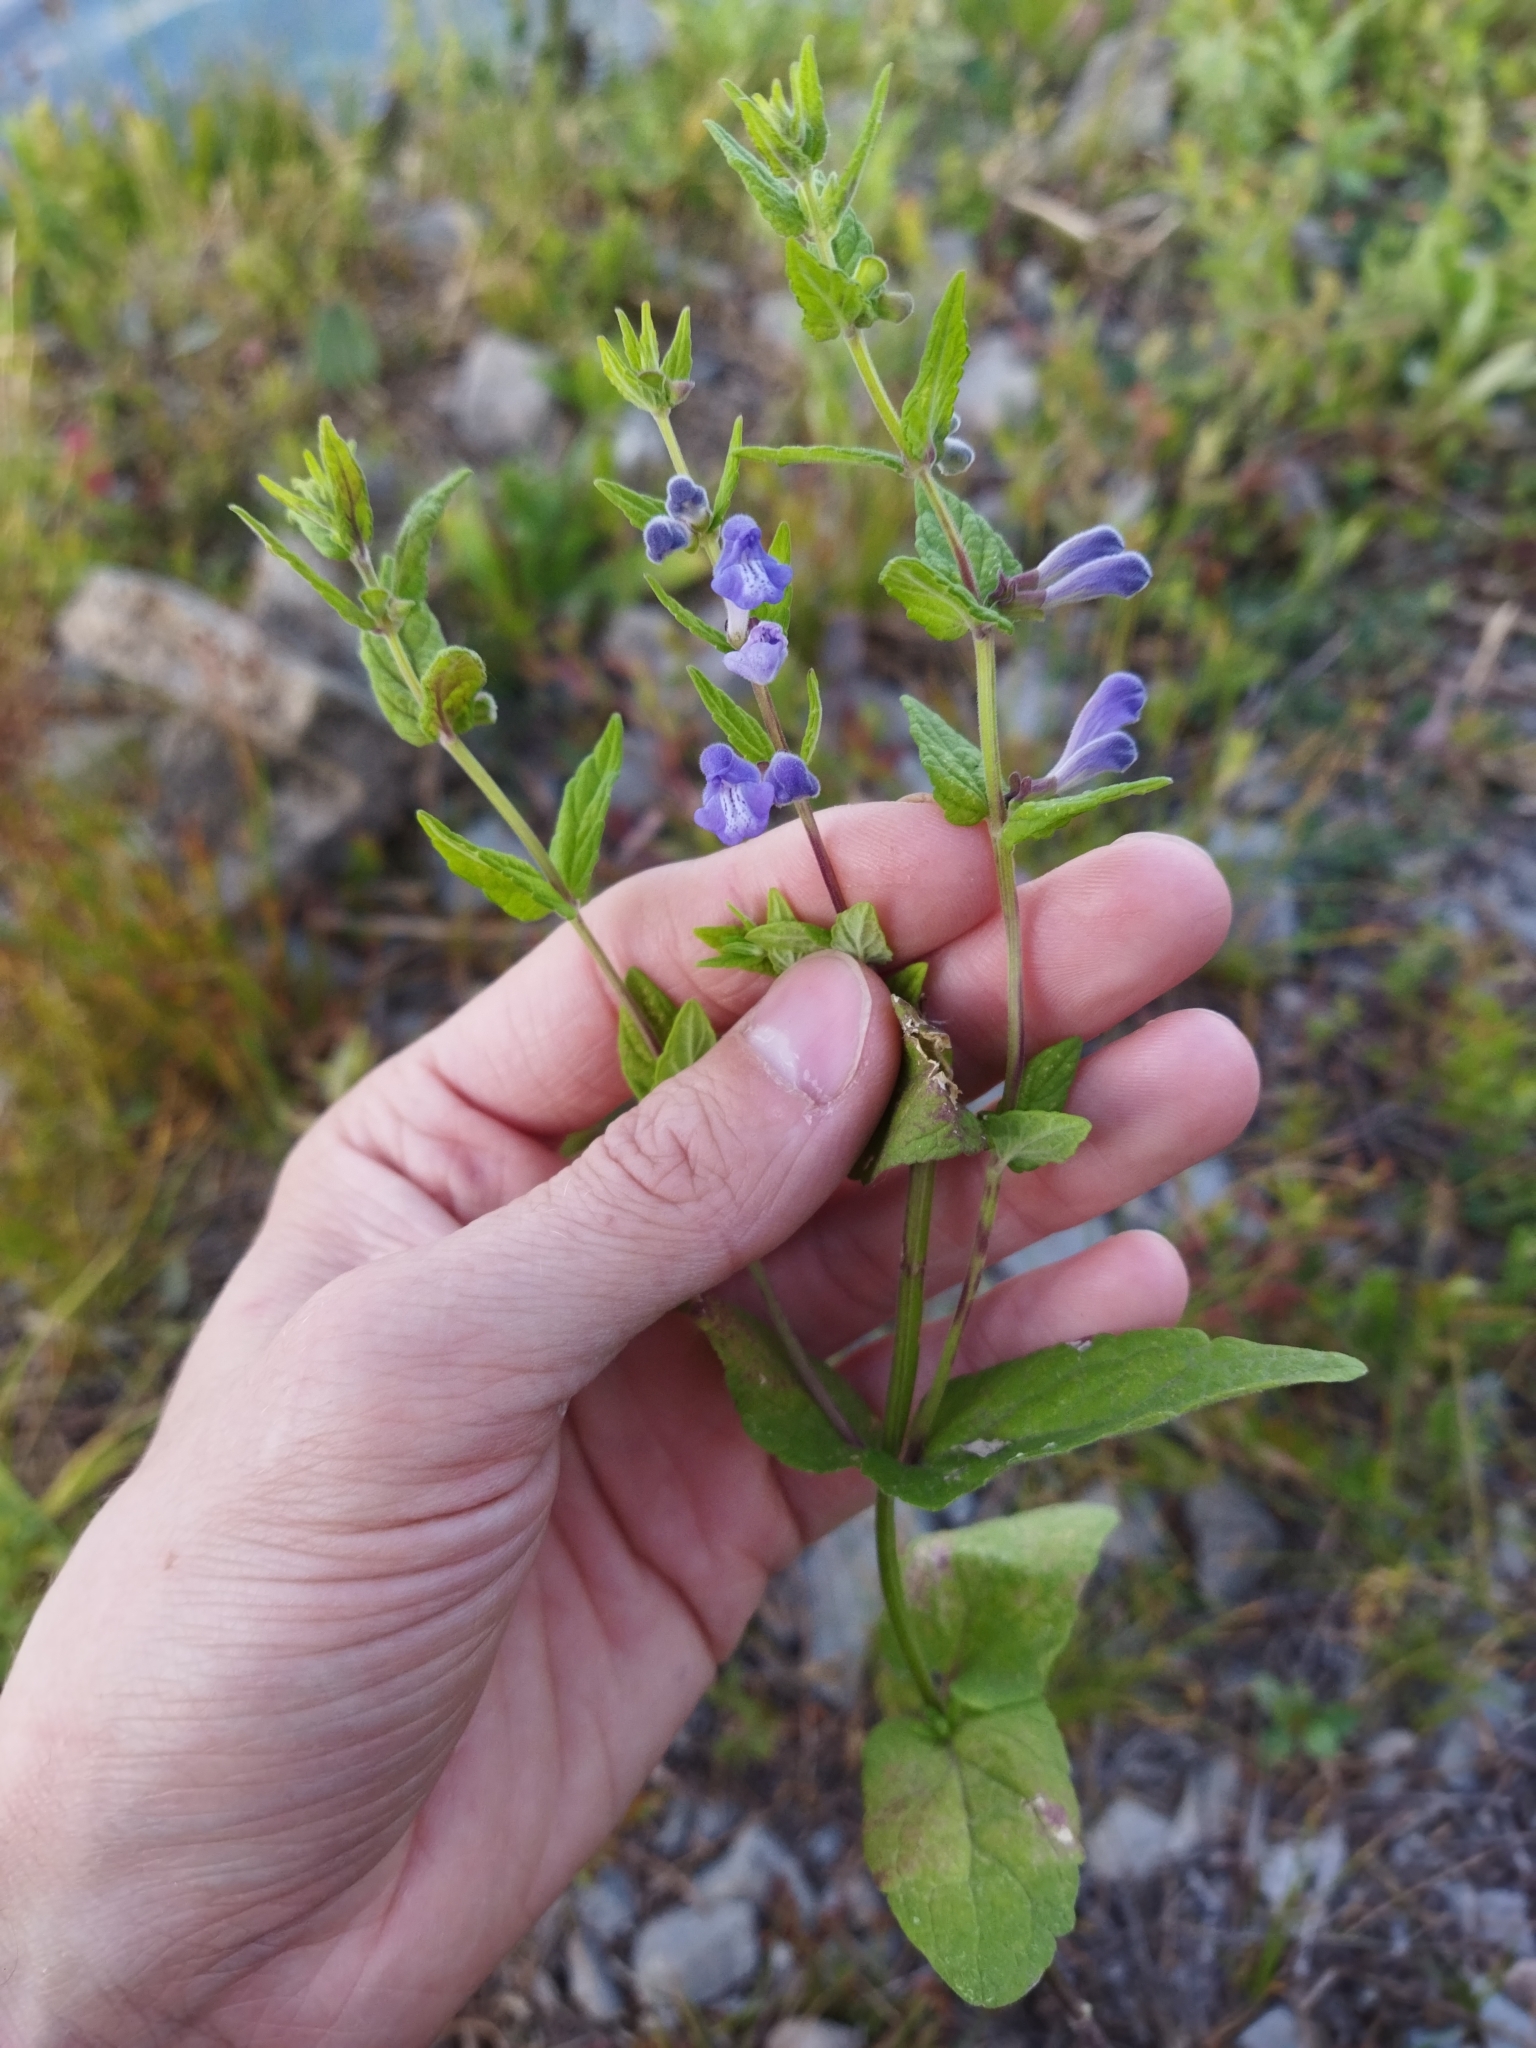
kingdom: Plantae
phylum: Tracheophyta
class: Magnoliopsida
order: Lamiales
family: Lamiaceae
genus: Scutellaria
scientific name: Scutellaria galericulata
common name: Skullcap
